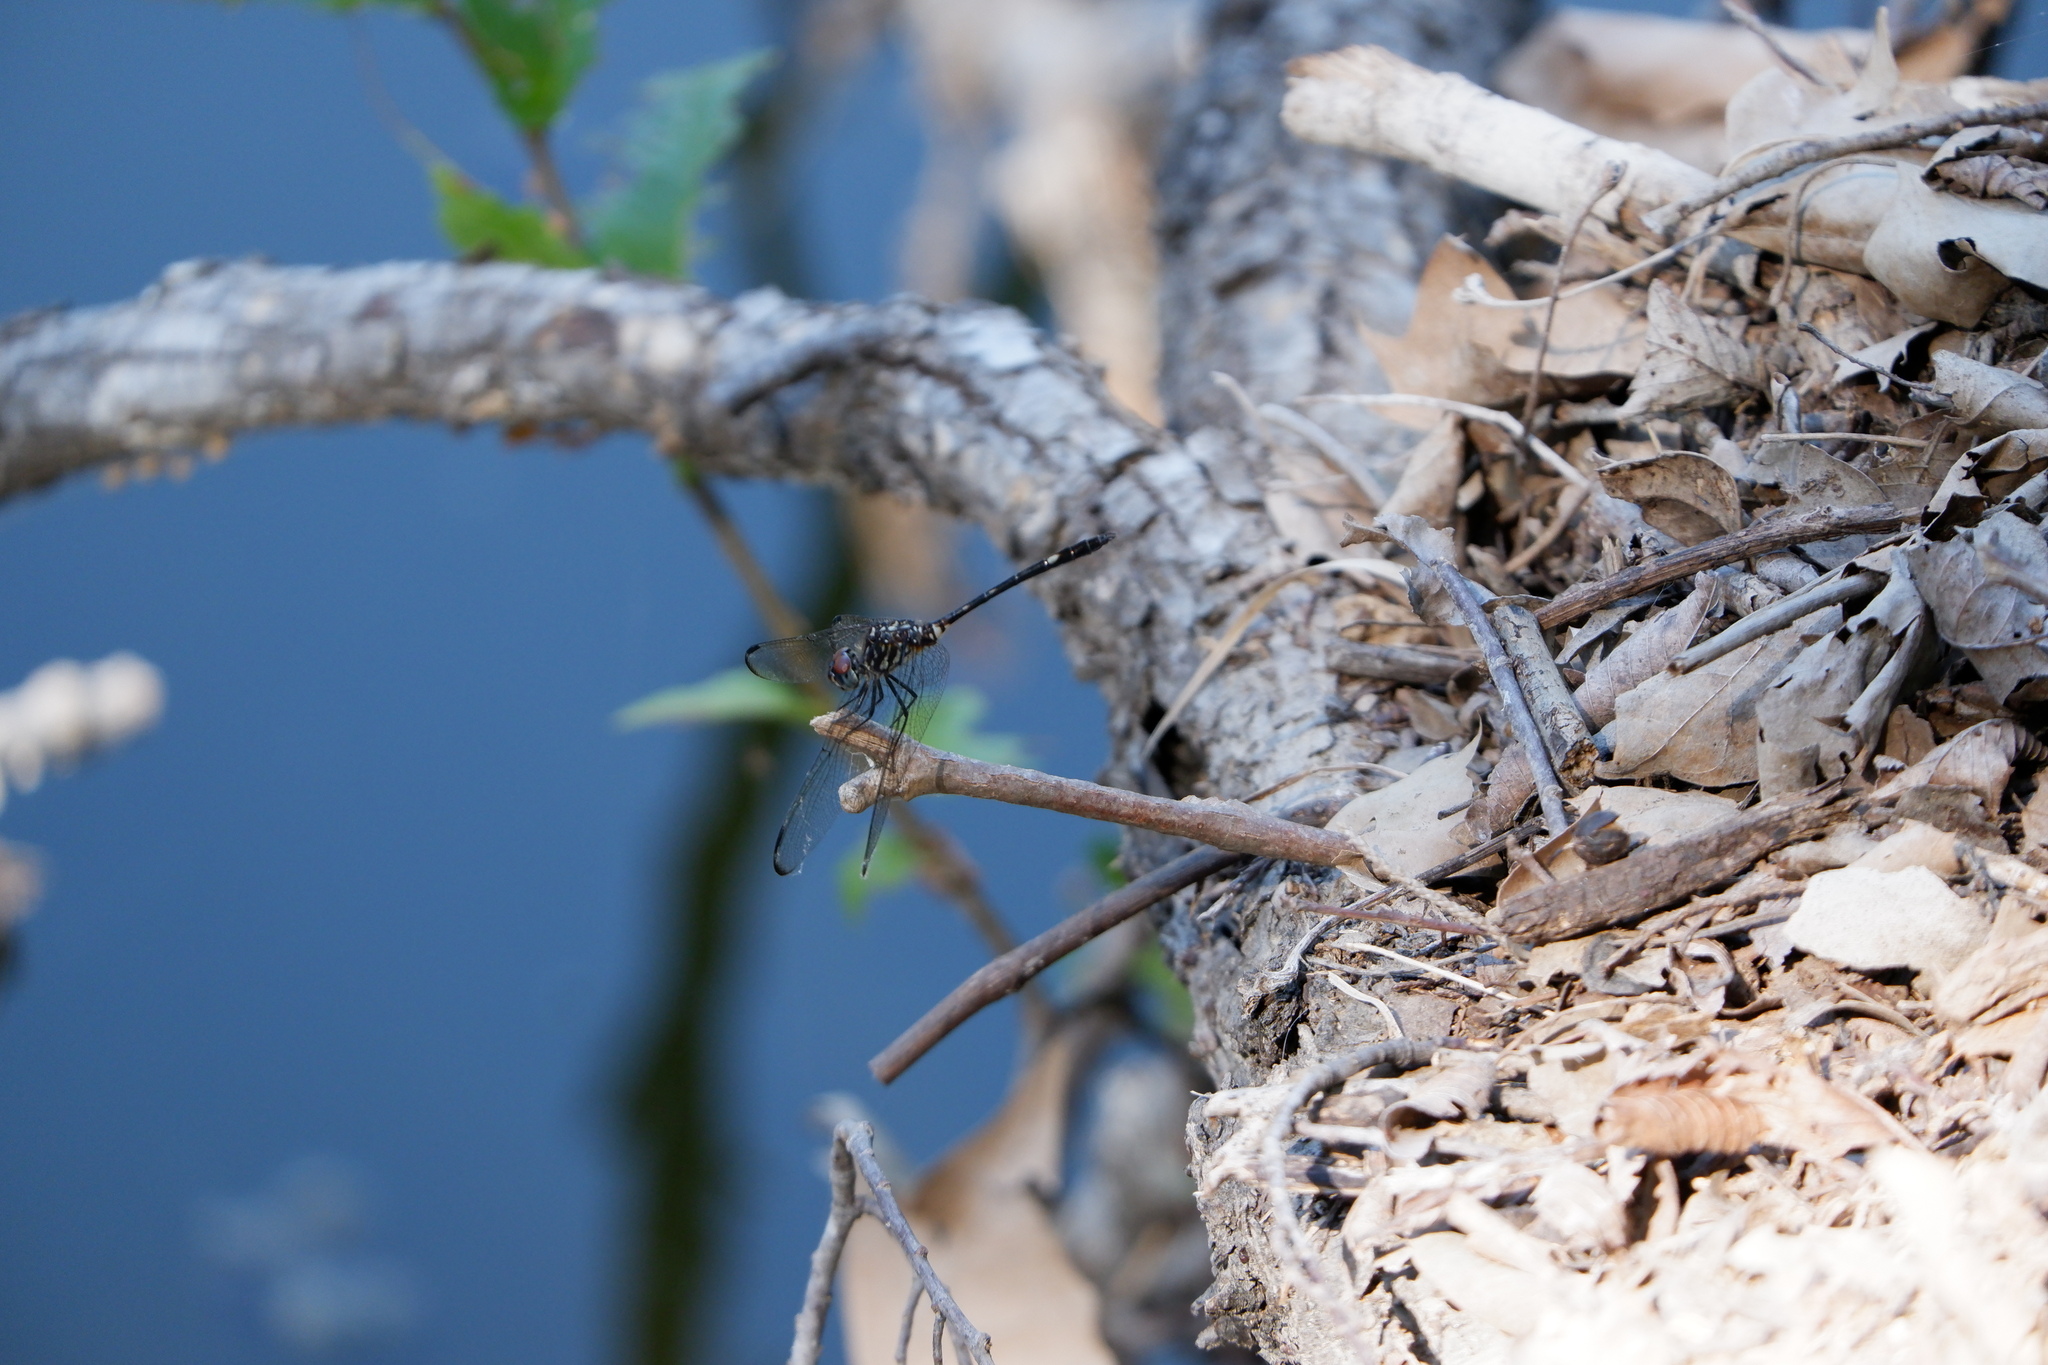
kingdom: Animalia
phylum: Arthropoda
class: Insecta
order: Odonata
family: Libellulidae
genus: Dythemis
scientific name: Dythemis velox
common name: Swift setwing
